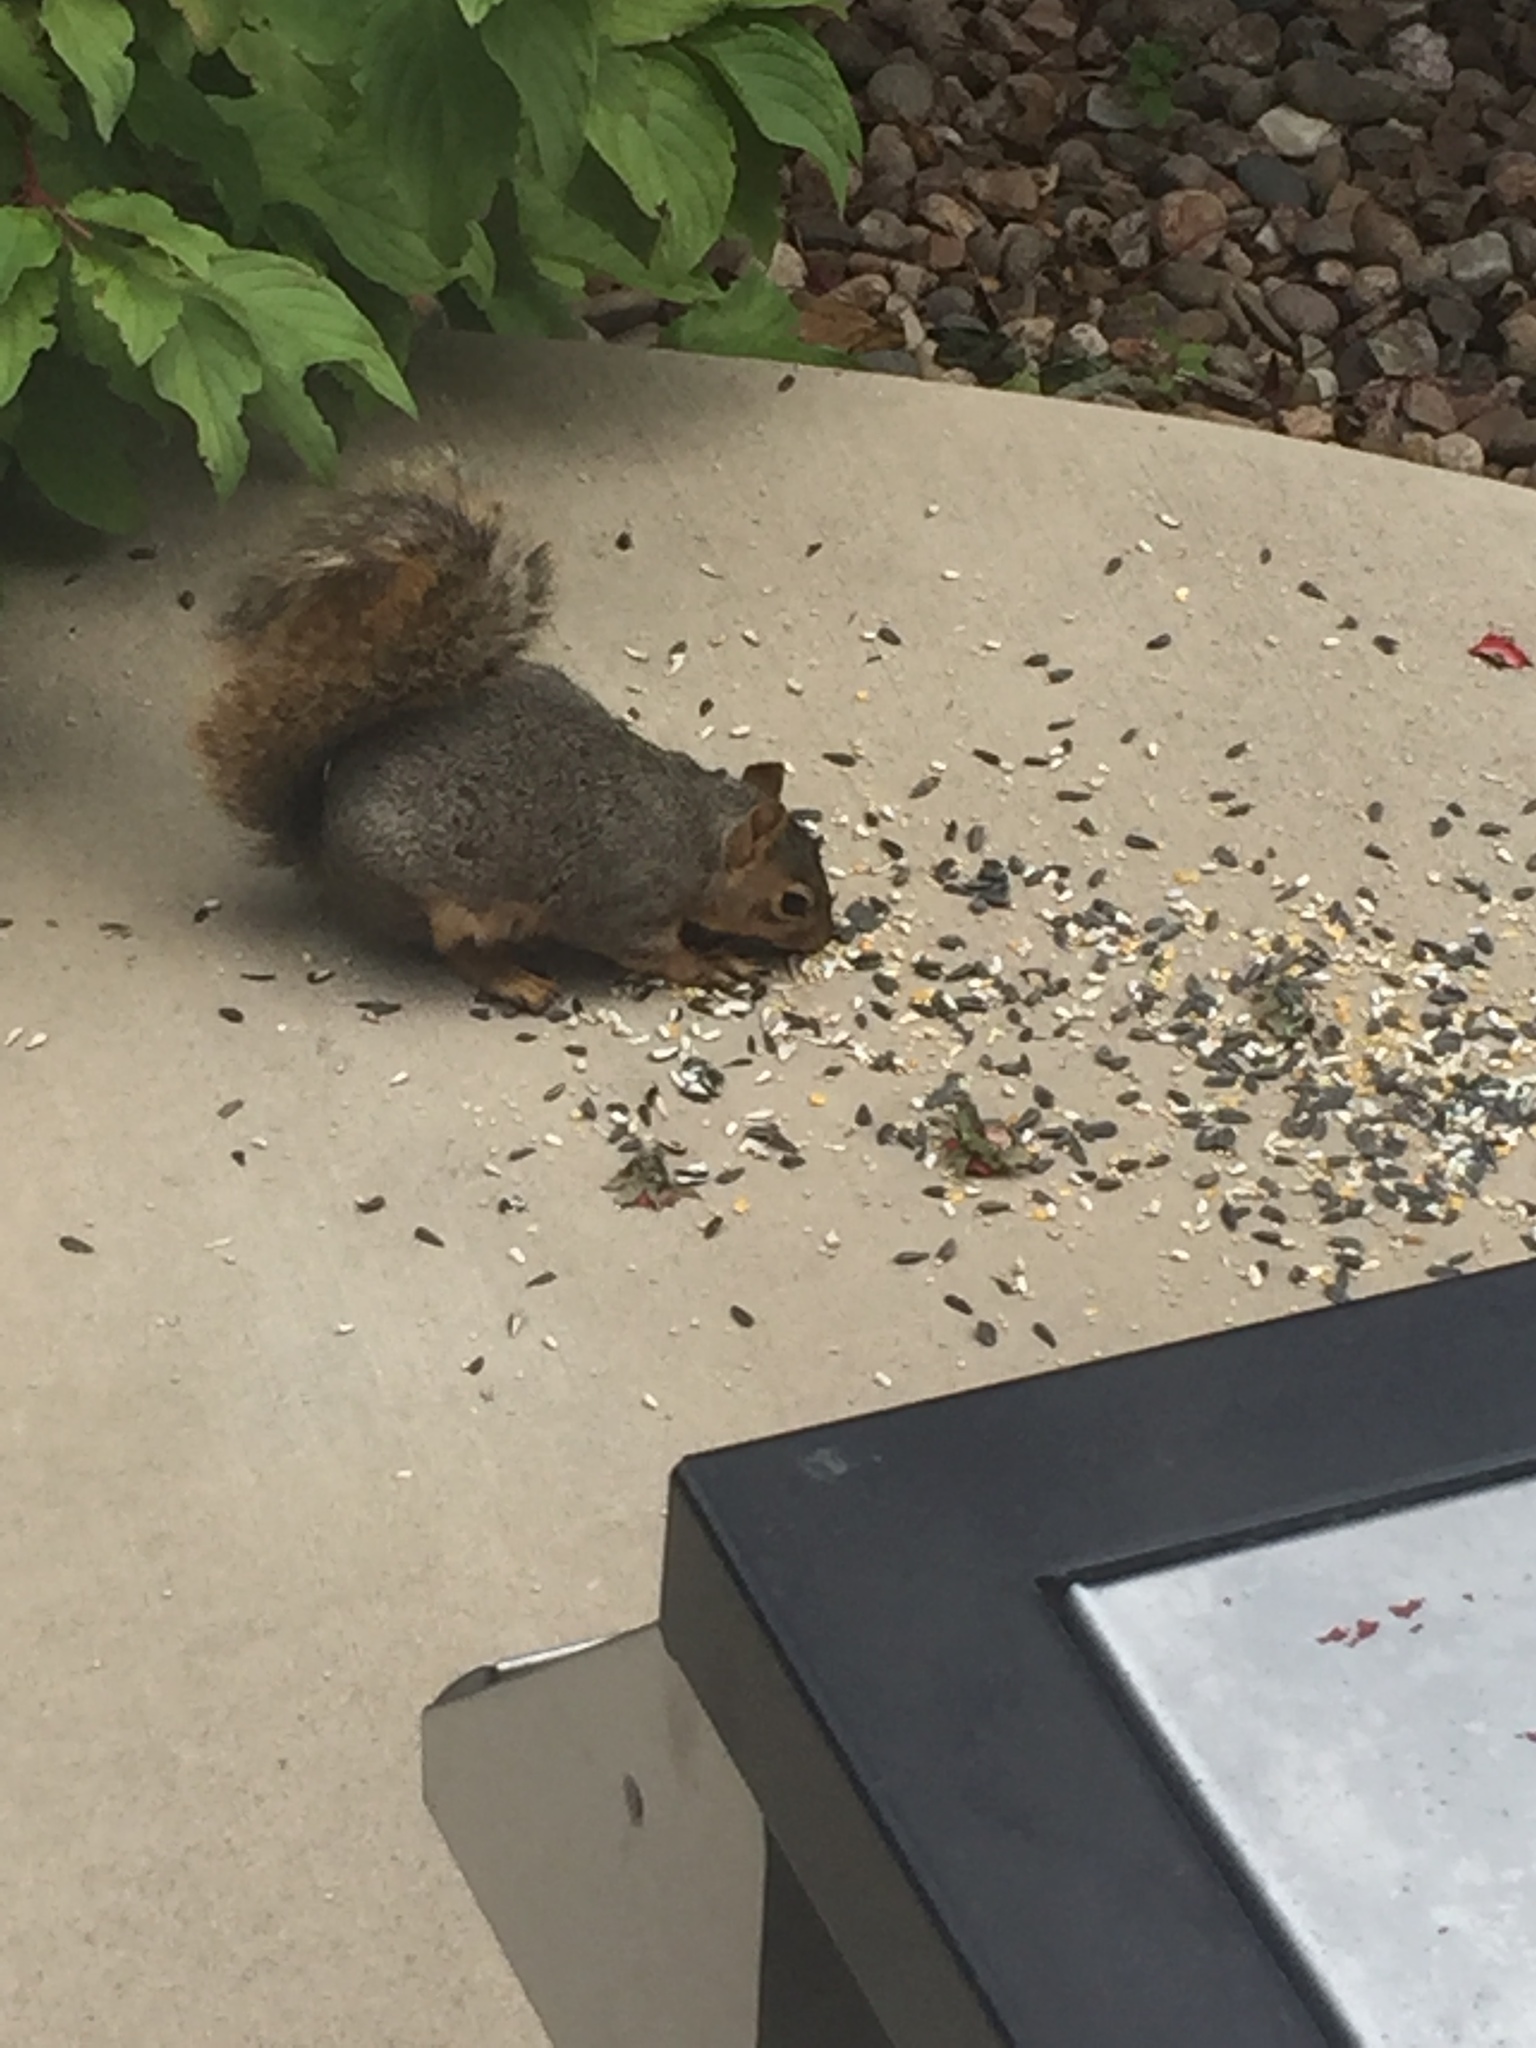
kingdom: Animalia
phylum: Chordata
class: Mammalia
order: Rodentia
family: Sciuridae
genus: Sciurus
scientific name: Sciurus niger
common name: Fox squirrel
